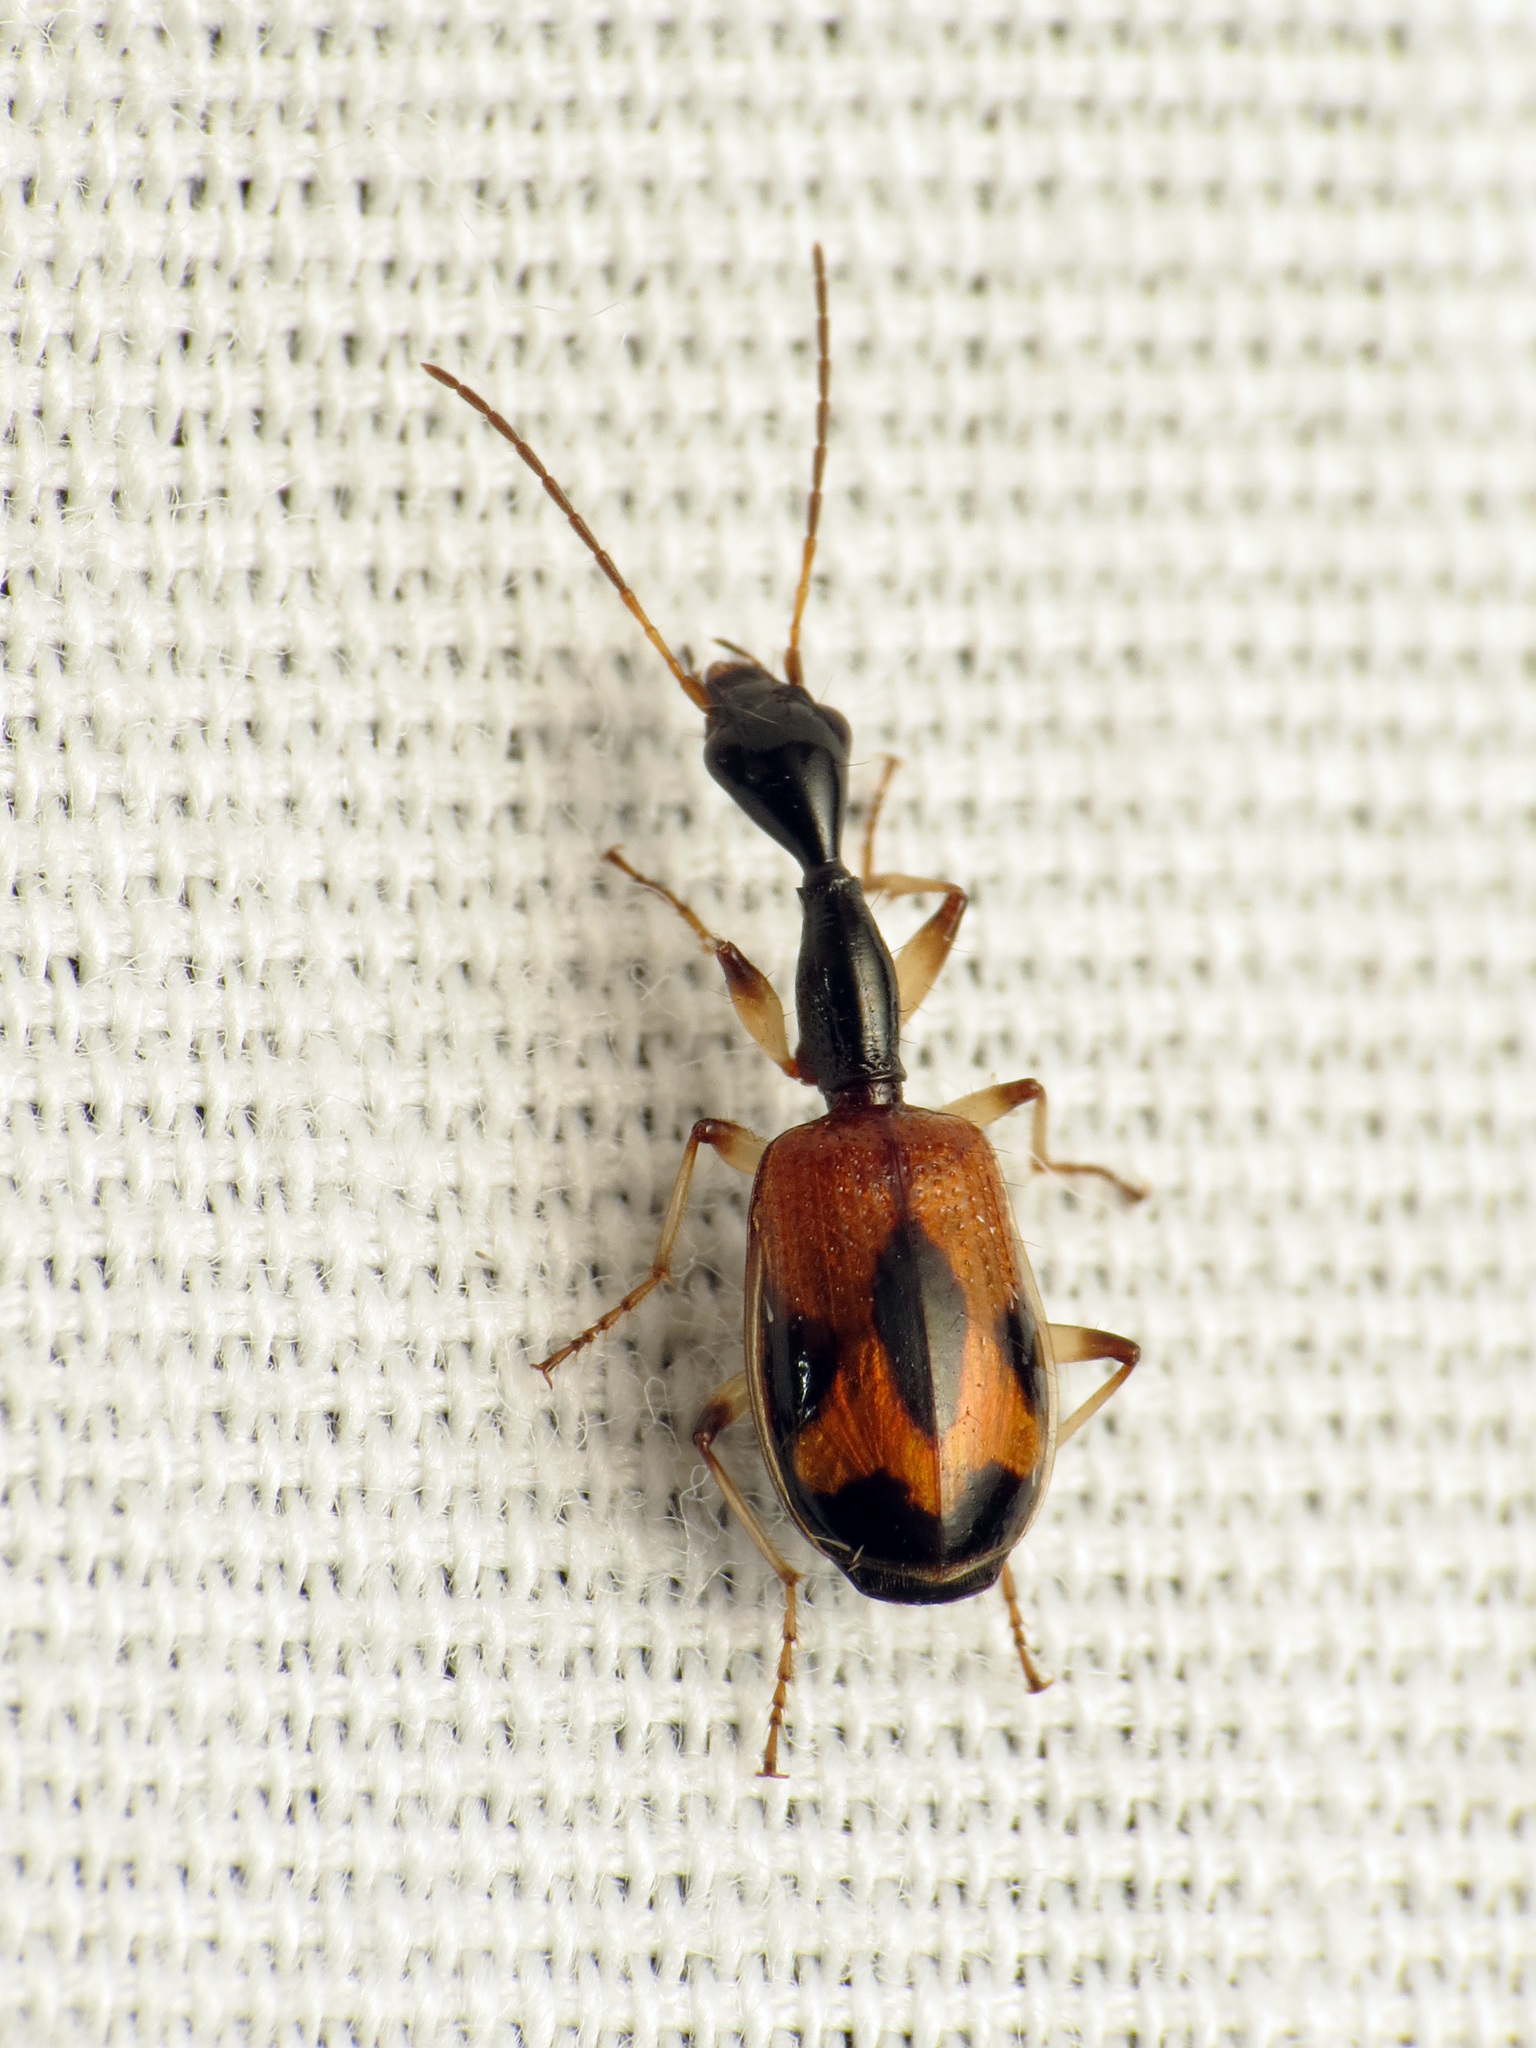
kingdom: Animalia
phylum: Arthropoda
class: Insecta
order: Coleoptera
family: Carabidae
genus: Colliuris
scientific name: Colliuris pensylvanica
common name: Long-necked ground beetle
